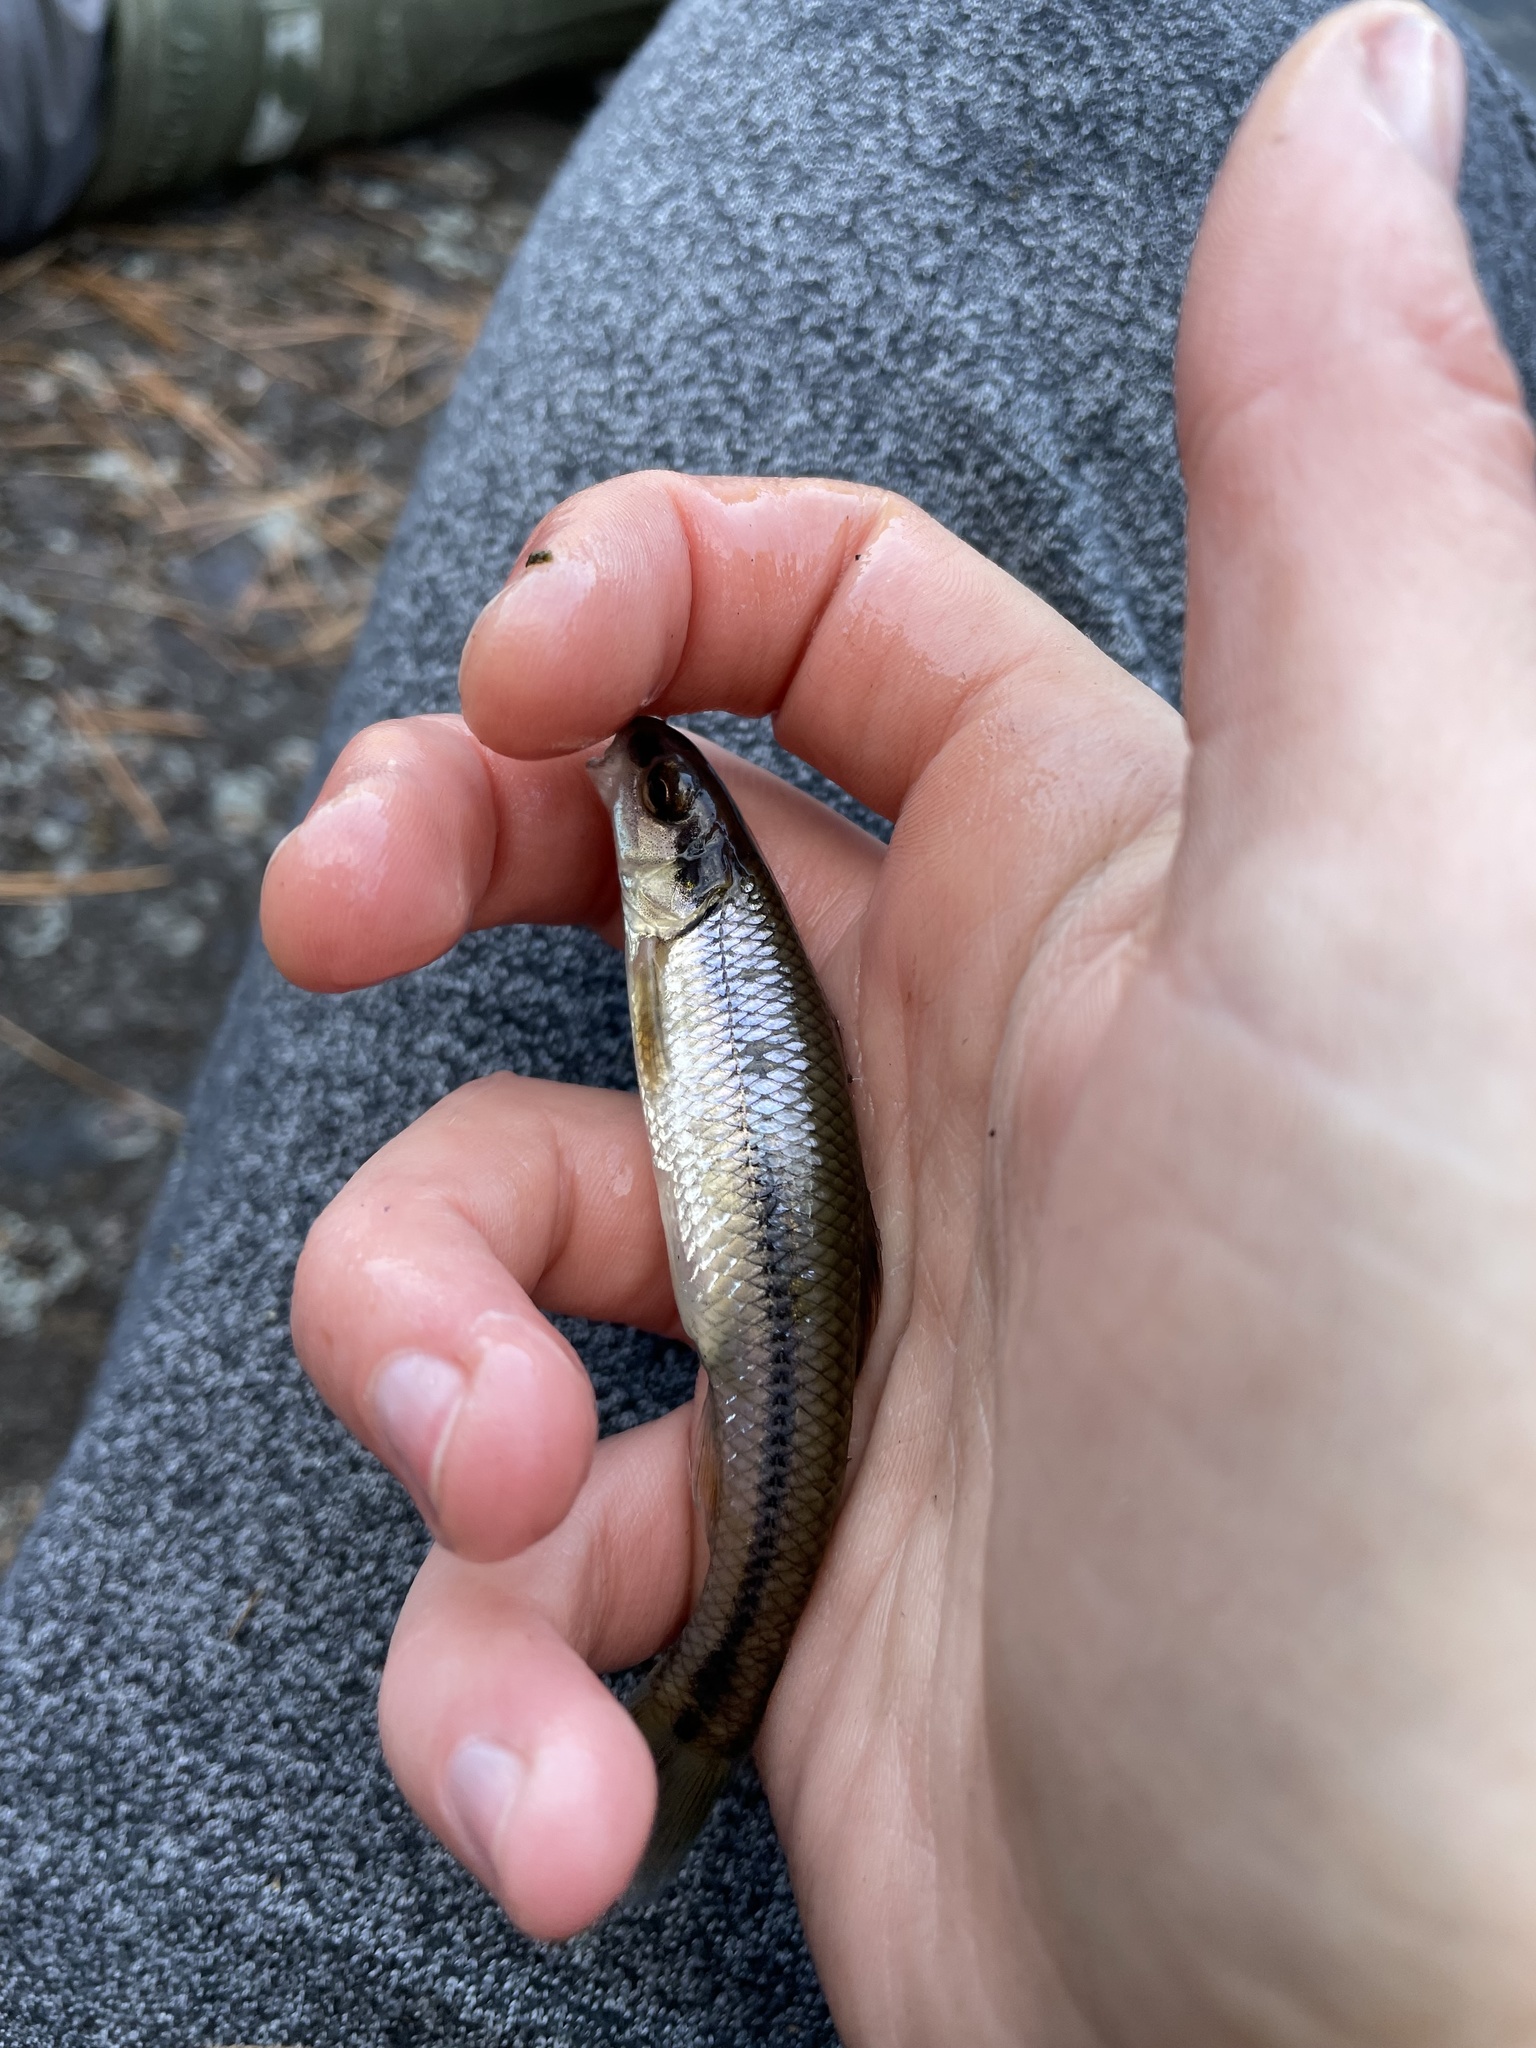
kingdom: Animalia
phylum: Chordata
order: Cypriniformes
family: Cyprinidae
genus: Pimephales
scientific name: Pimephales notatus
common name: Bluntnose minnow
